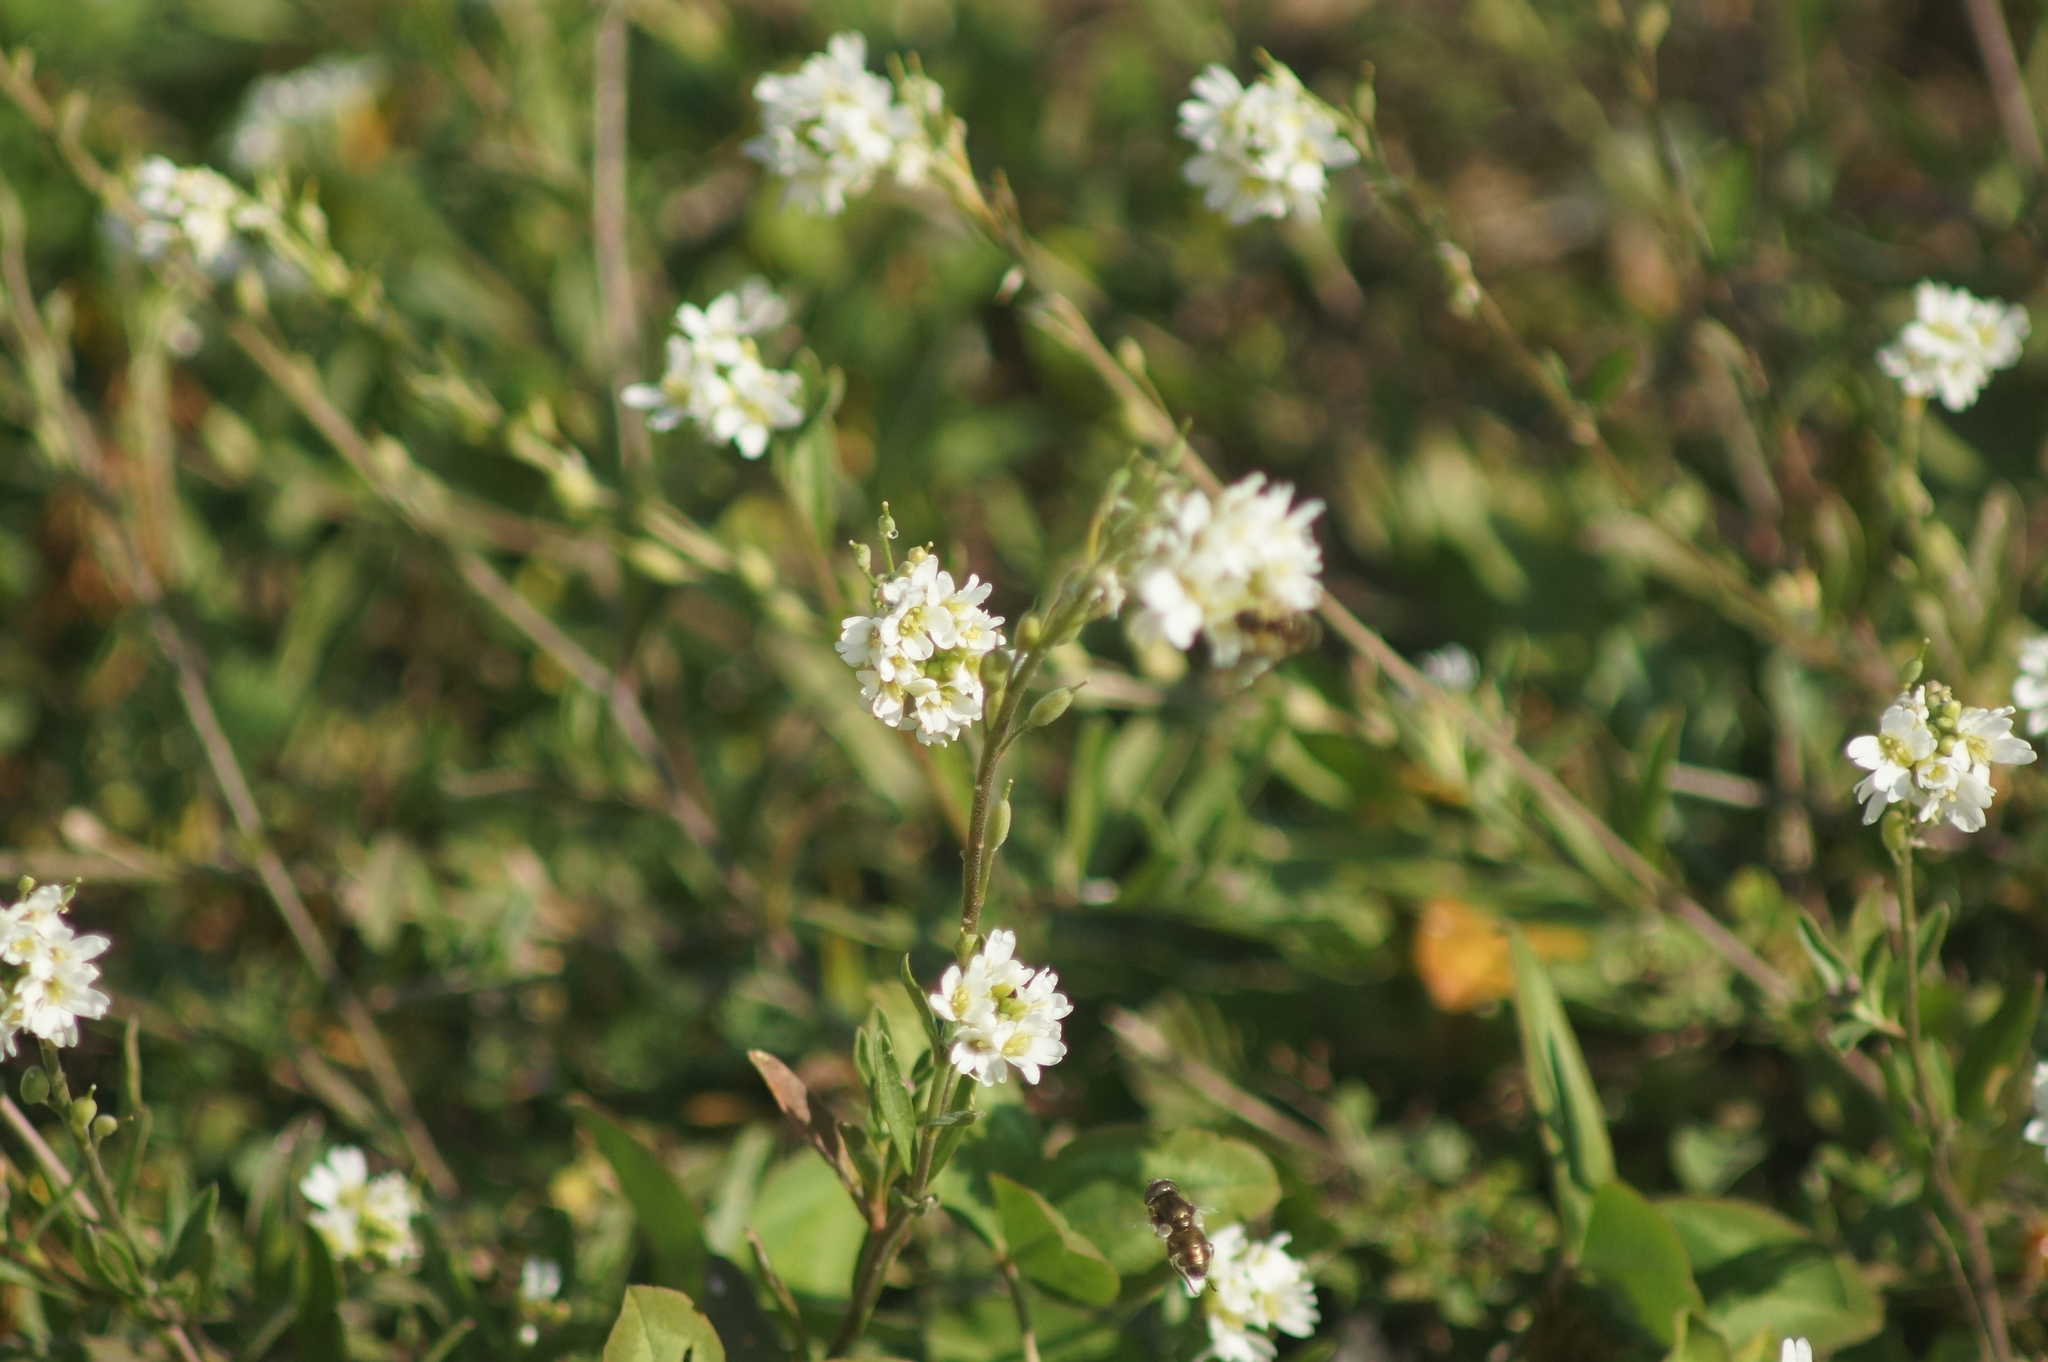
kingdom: Plantae
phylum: Tracheophyta
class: Magnoliopsida
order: Brassicales
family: Brassicaceae
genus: Berteroa
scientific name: Berteroa incana
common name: Hoary alison
